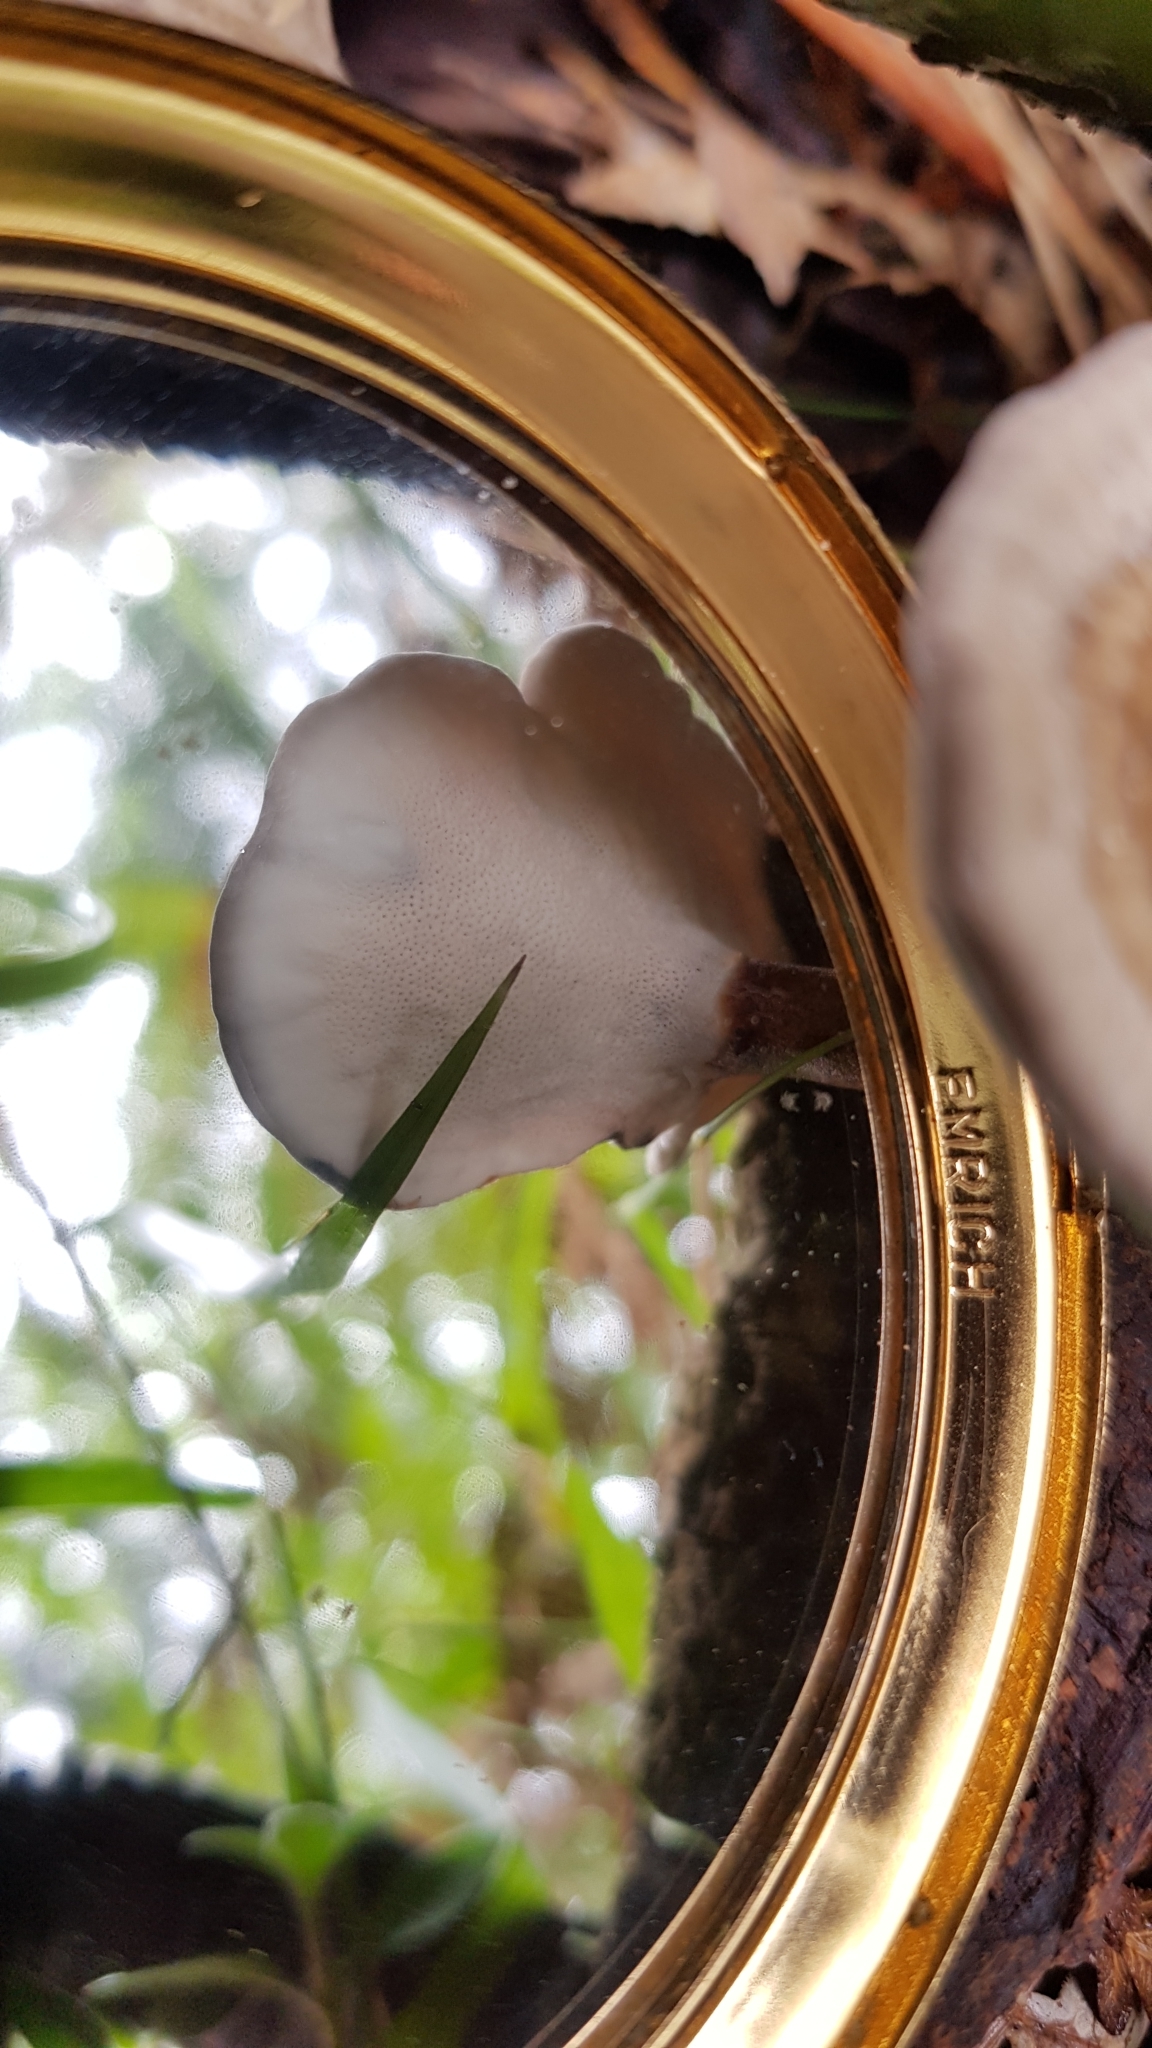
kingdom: Fungi
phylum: Basidiomycota
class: Agaricomycetes
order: Polyporales
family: Ganodermataceae
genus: Sanguinoderma
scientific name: Sanguinoderma rude
